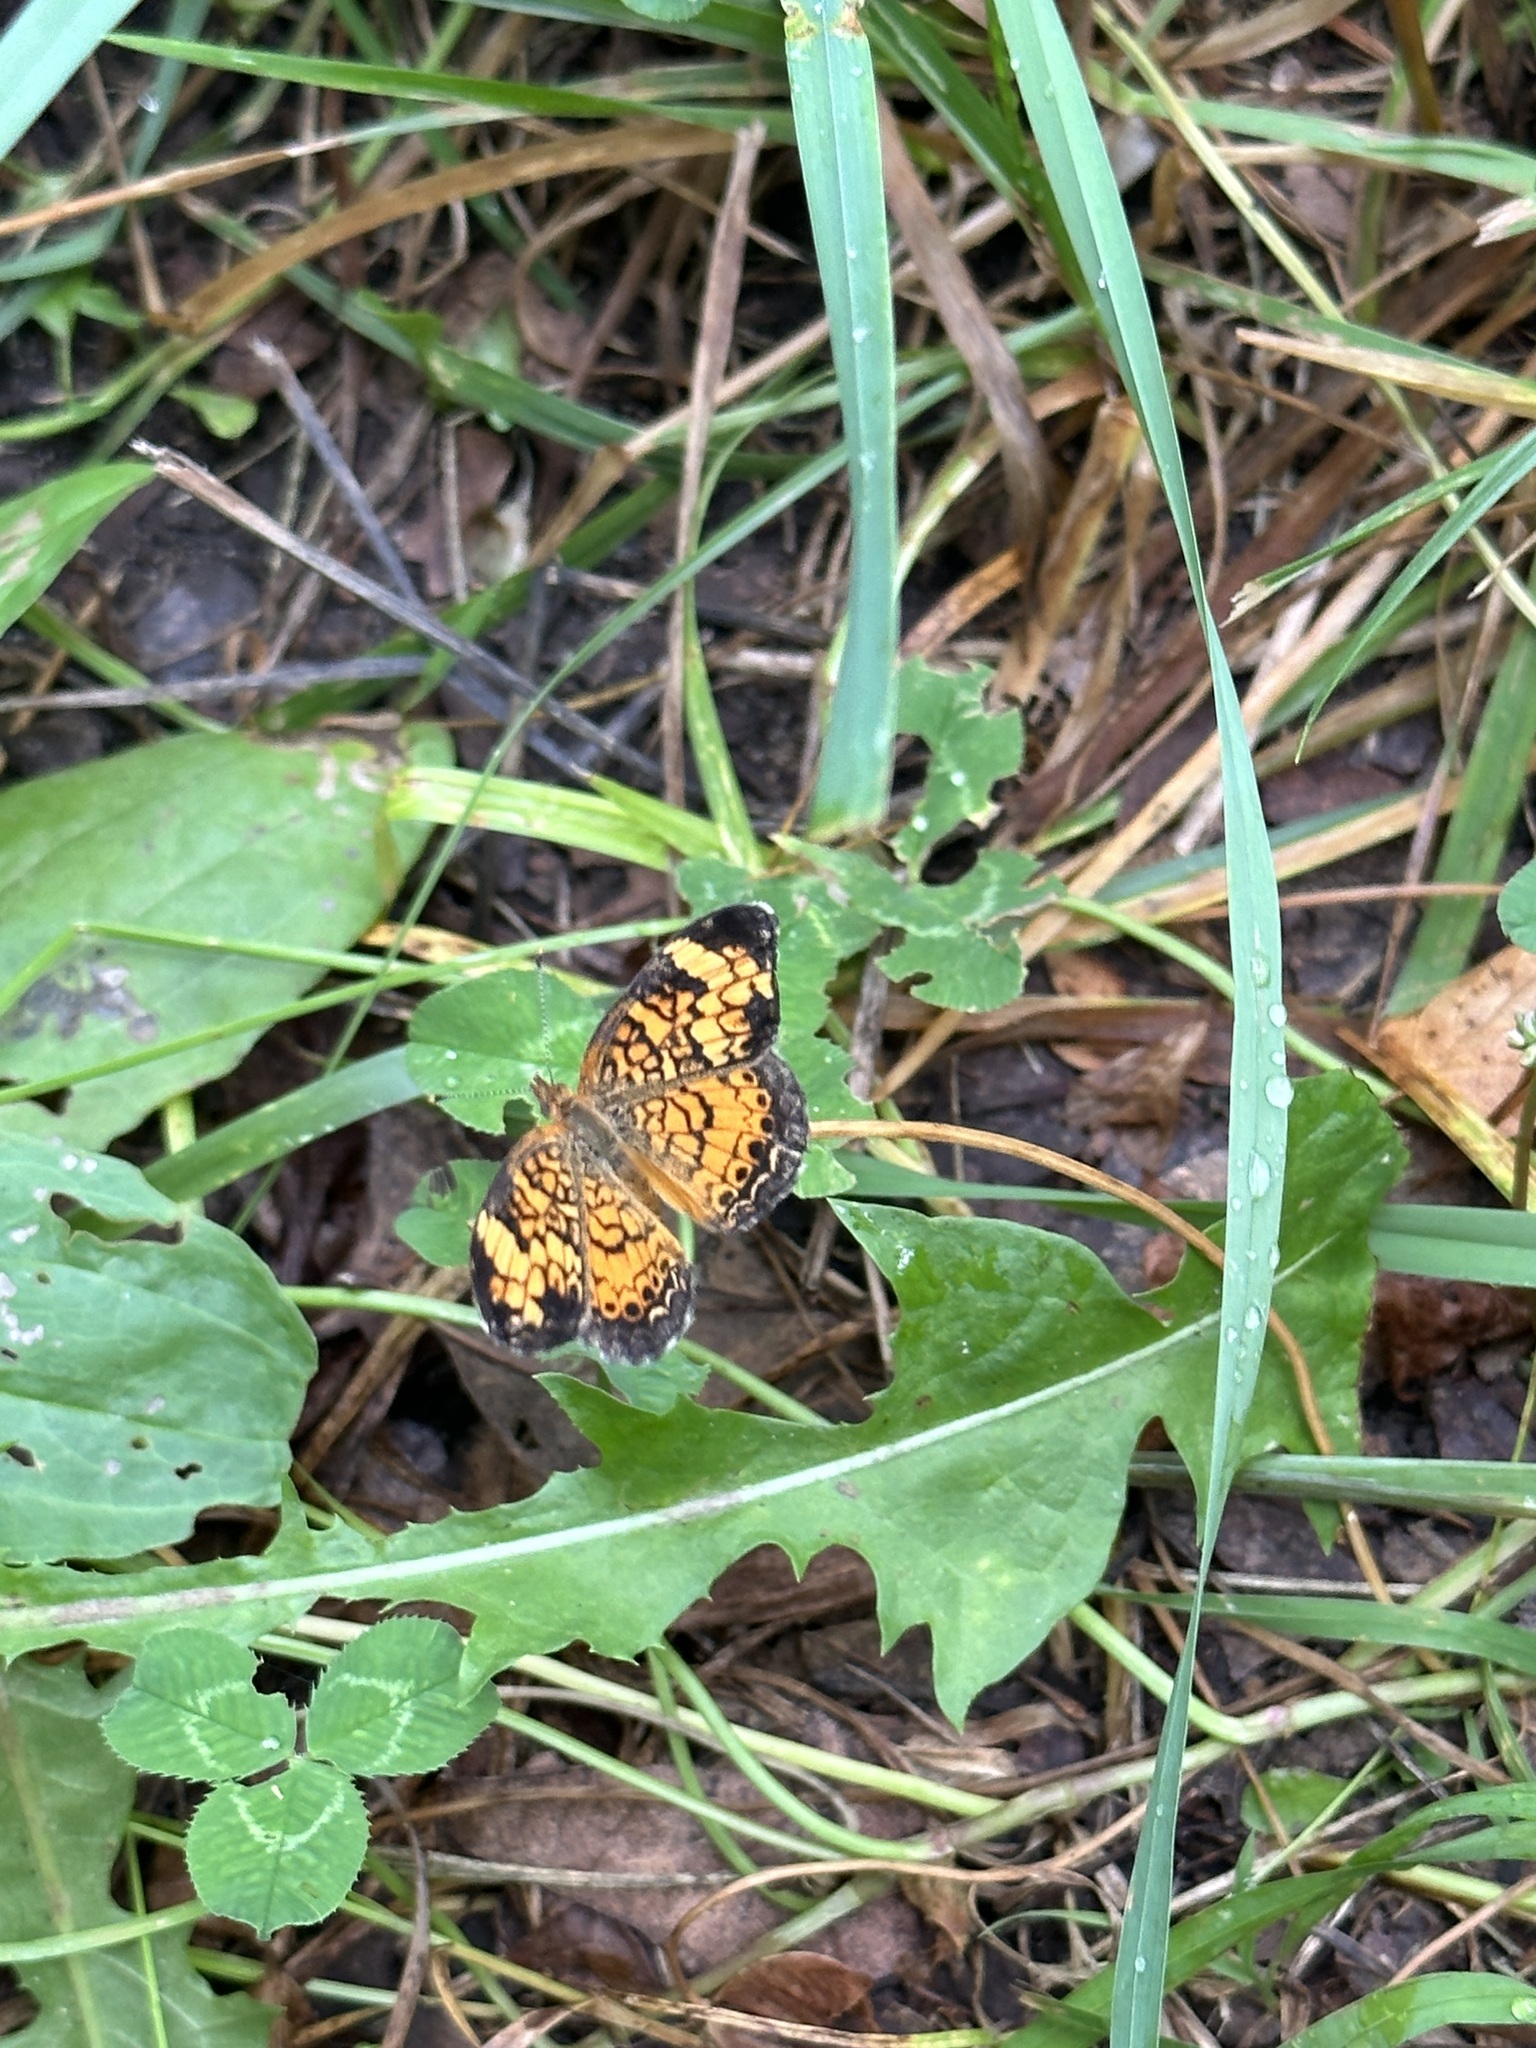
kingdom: Animalia
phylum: Arthropoda
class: Insecta
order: Lepidoptera
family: Nymphalidae
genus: Phyciodes
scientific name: Phyciodes tharos
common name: Pearl crescent
